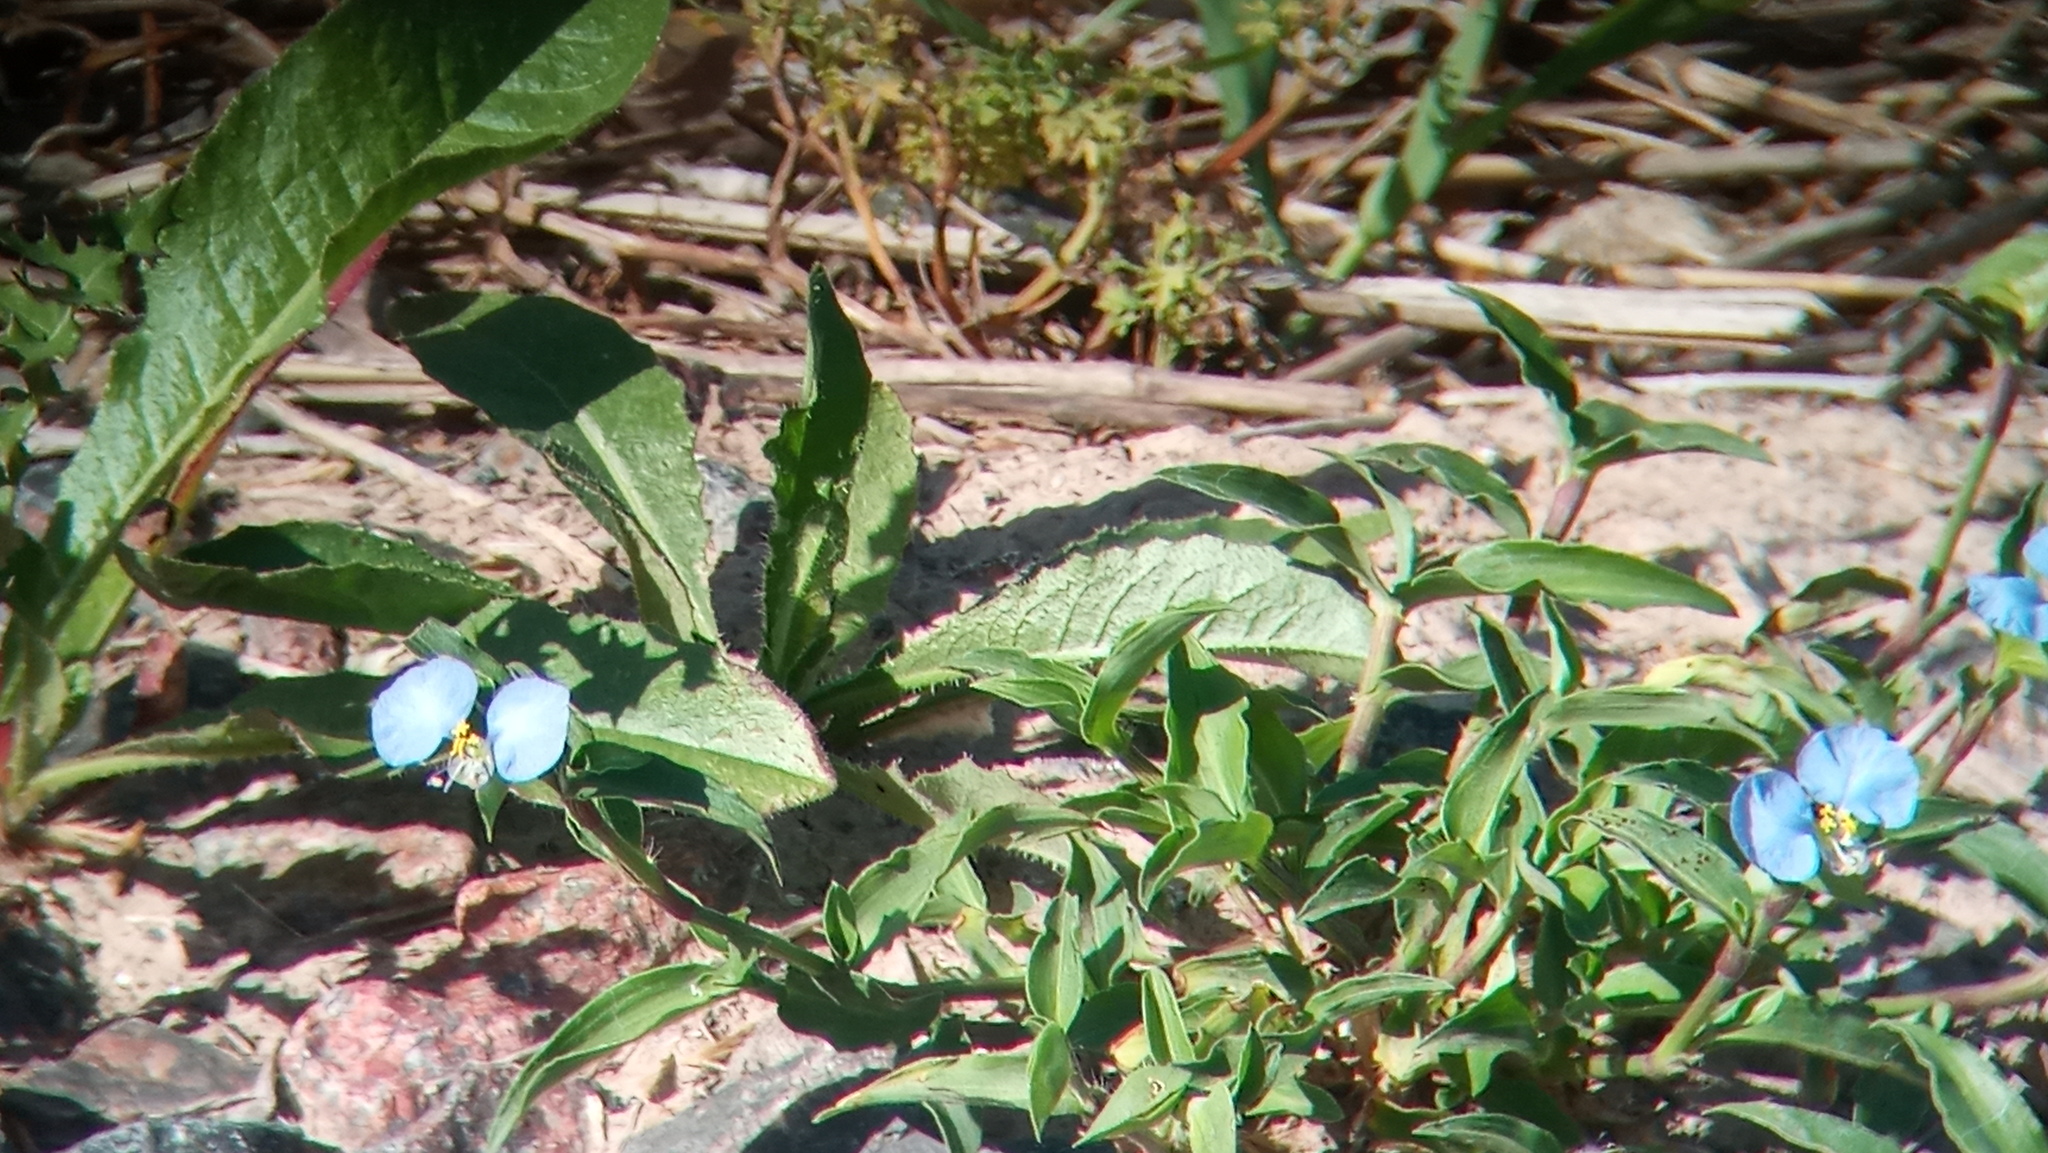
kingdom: Plantae
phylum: Tracheophyta
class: Liliopsida
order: Commelinales
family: Commelinaceae
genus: Commelina
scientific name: Commelina erecta
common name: Blousel blommetjie
